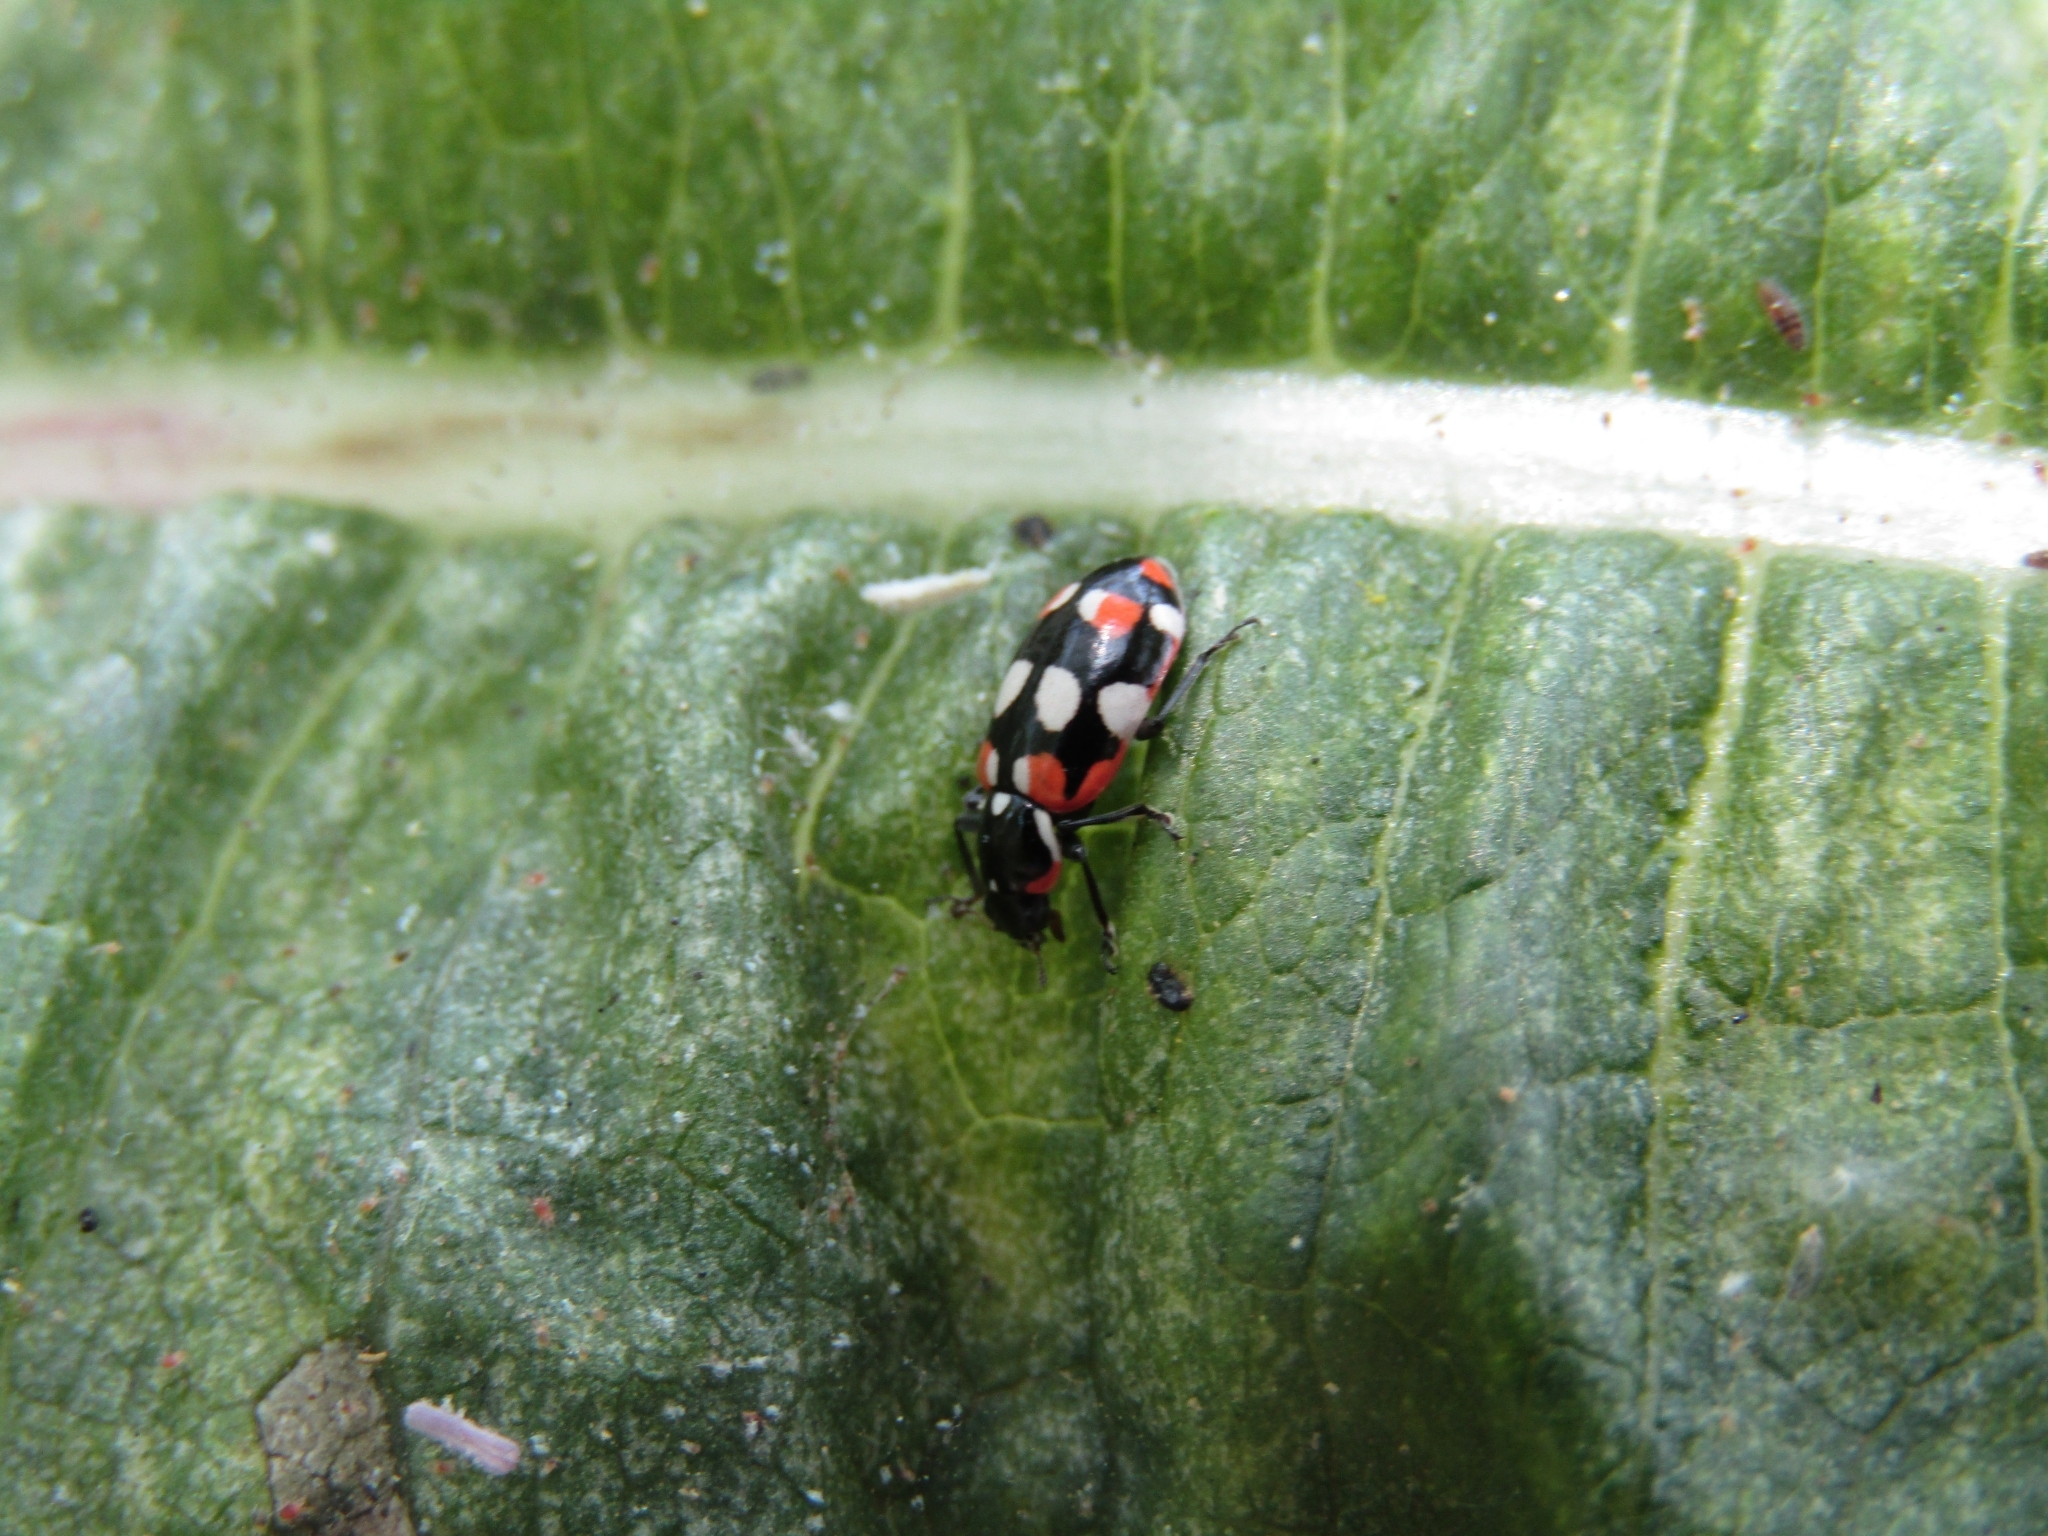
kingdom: Animalia
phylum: Arthropoda
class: Insecta
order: Coleoptera
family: Coccinellidae
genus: Eriopis
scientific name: Eriopis connexa
